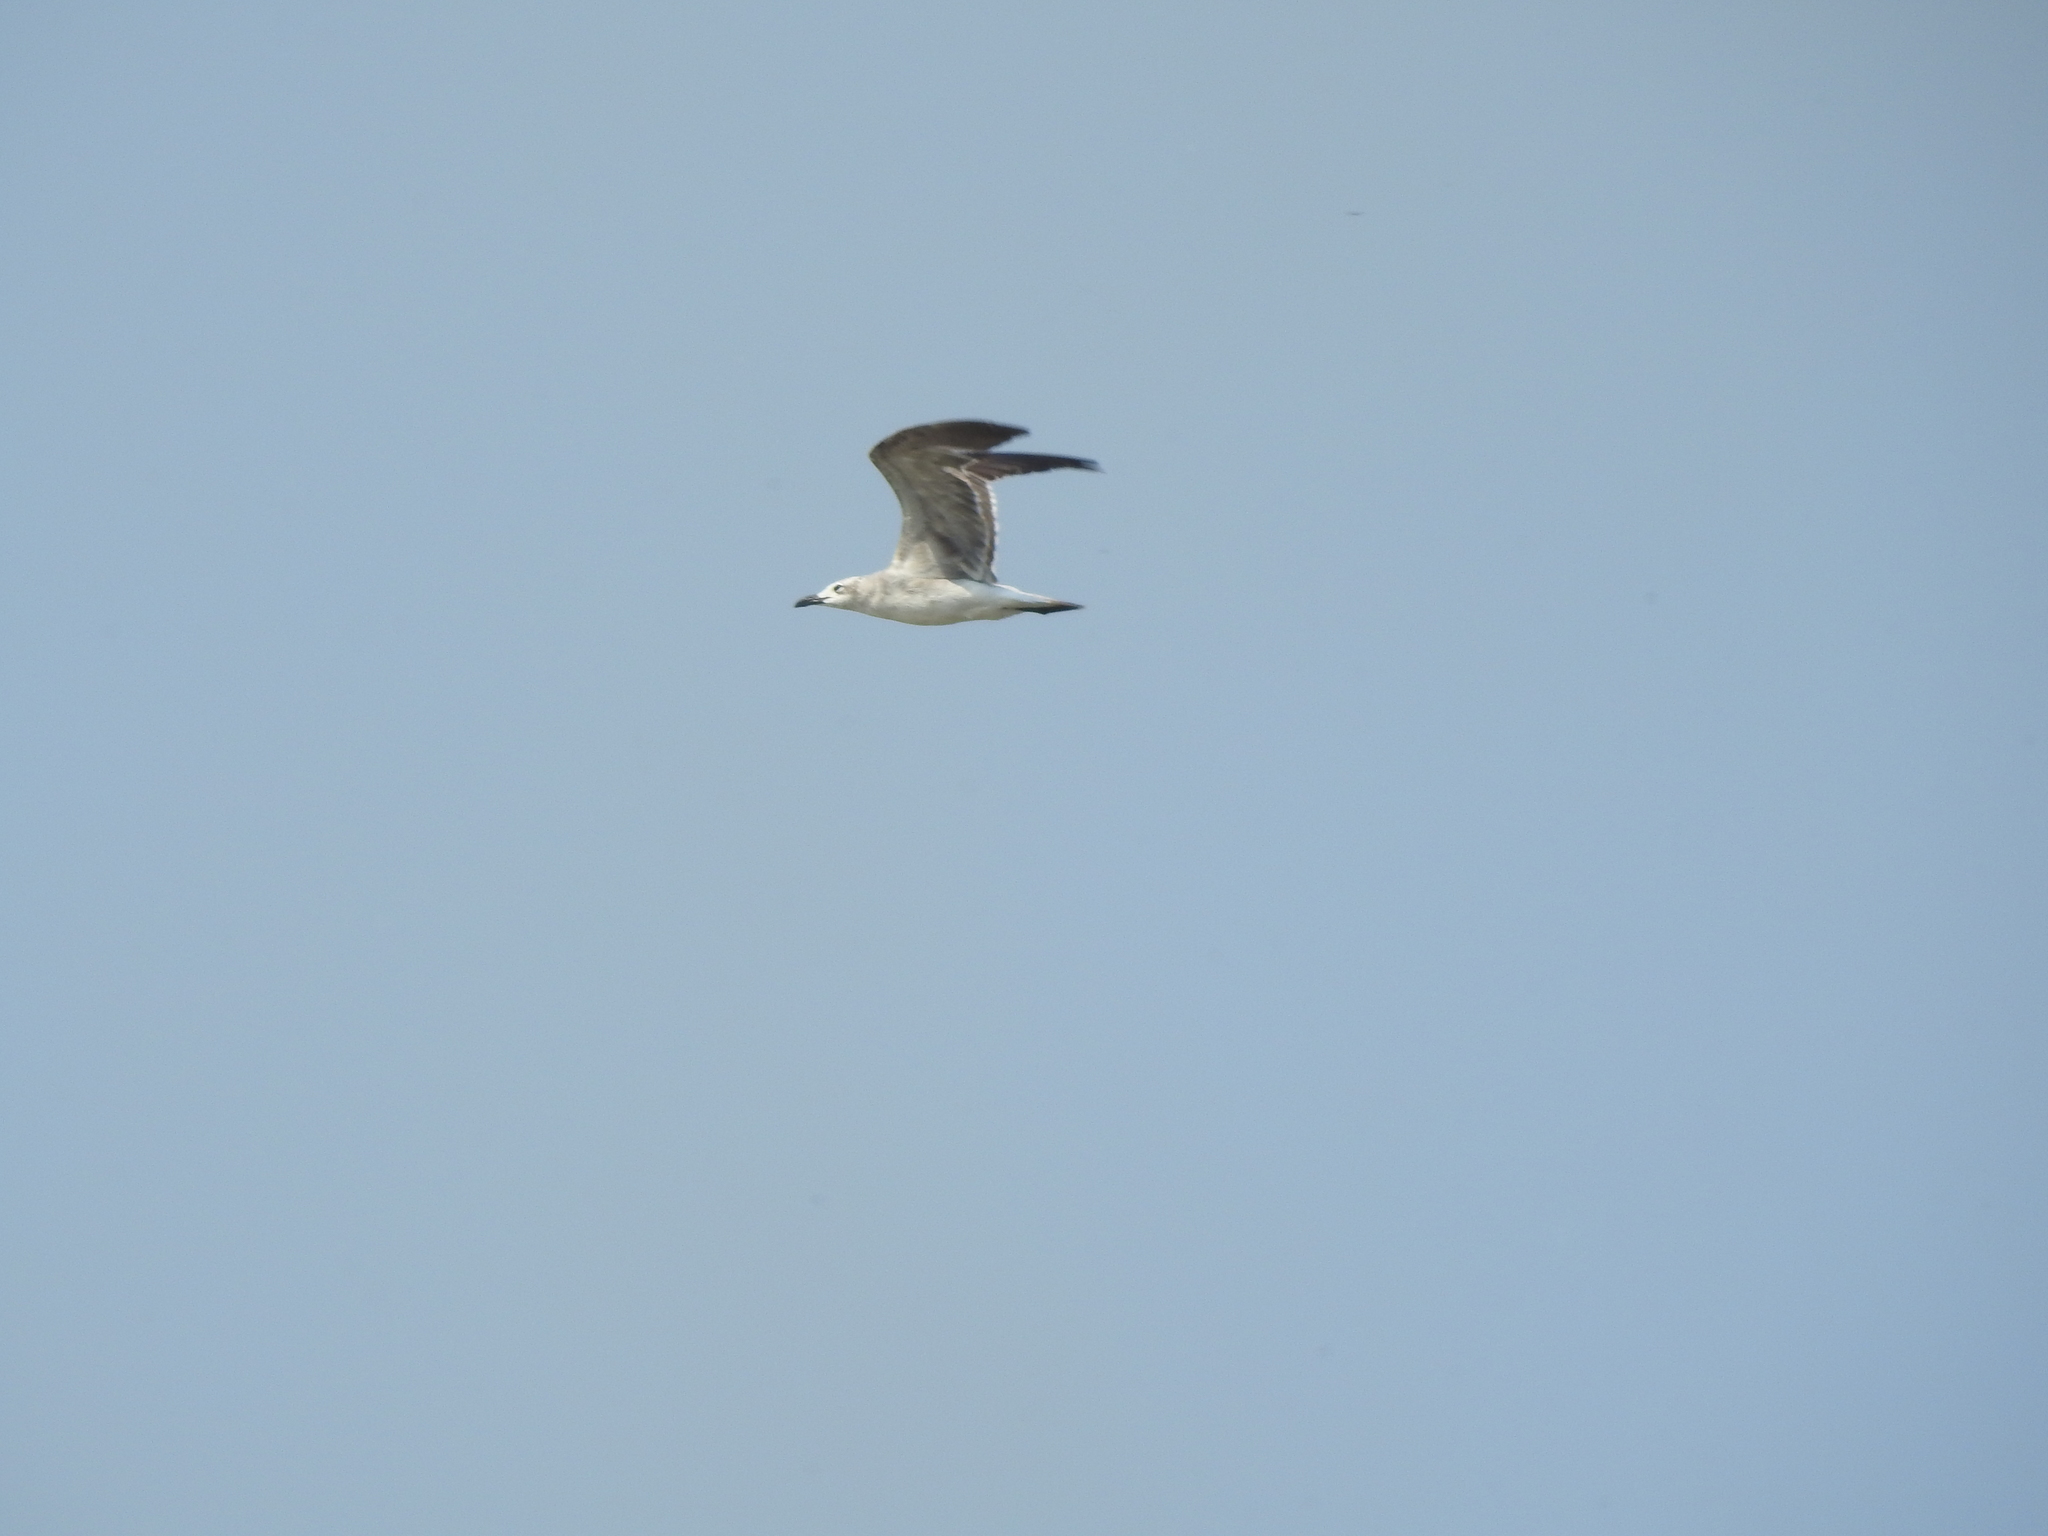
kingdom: Animalia
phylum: Chordata
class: Aves
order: Charadriiformes
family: Laridae
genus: Leucophaeus
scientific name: Leucophaeus atricilla
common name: Laughing gull
